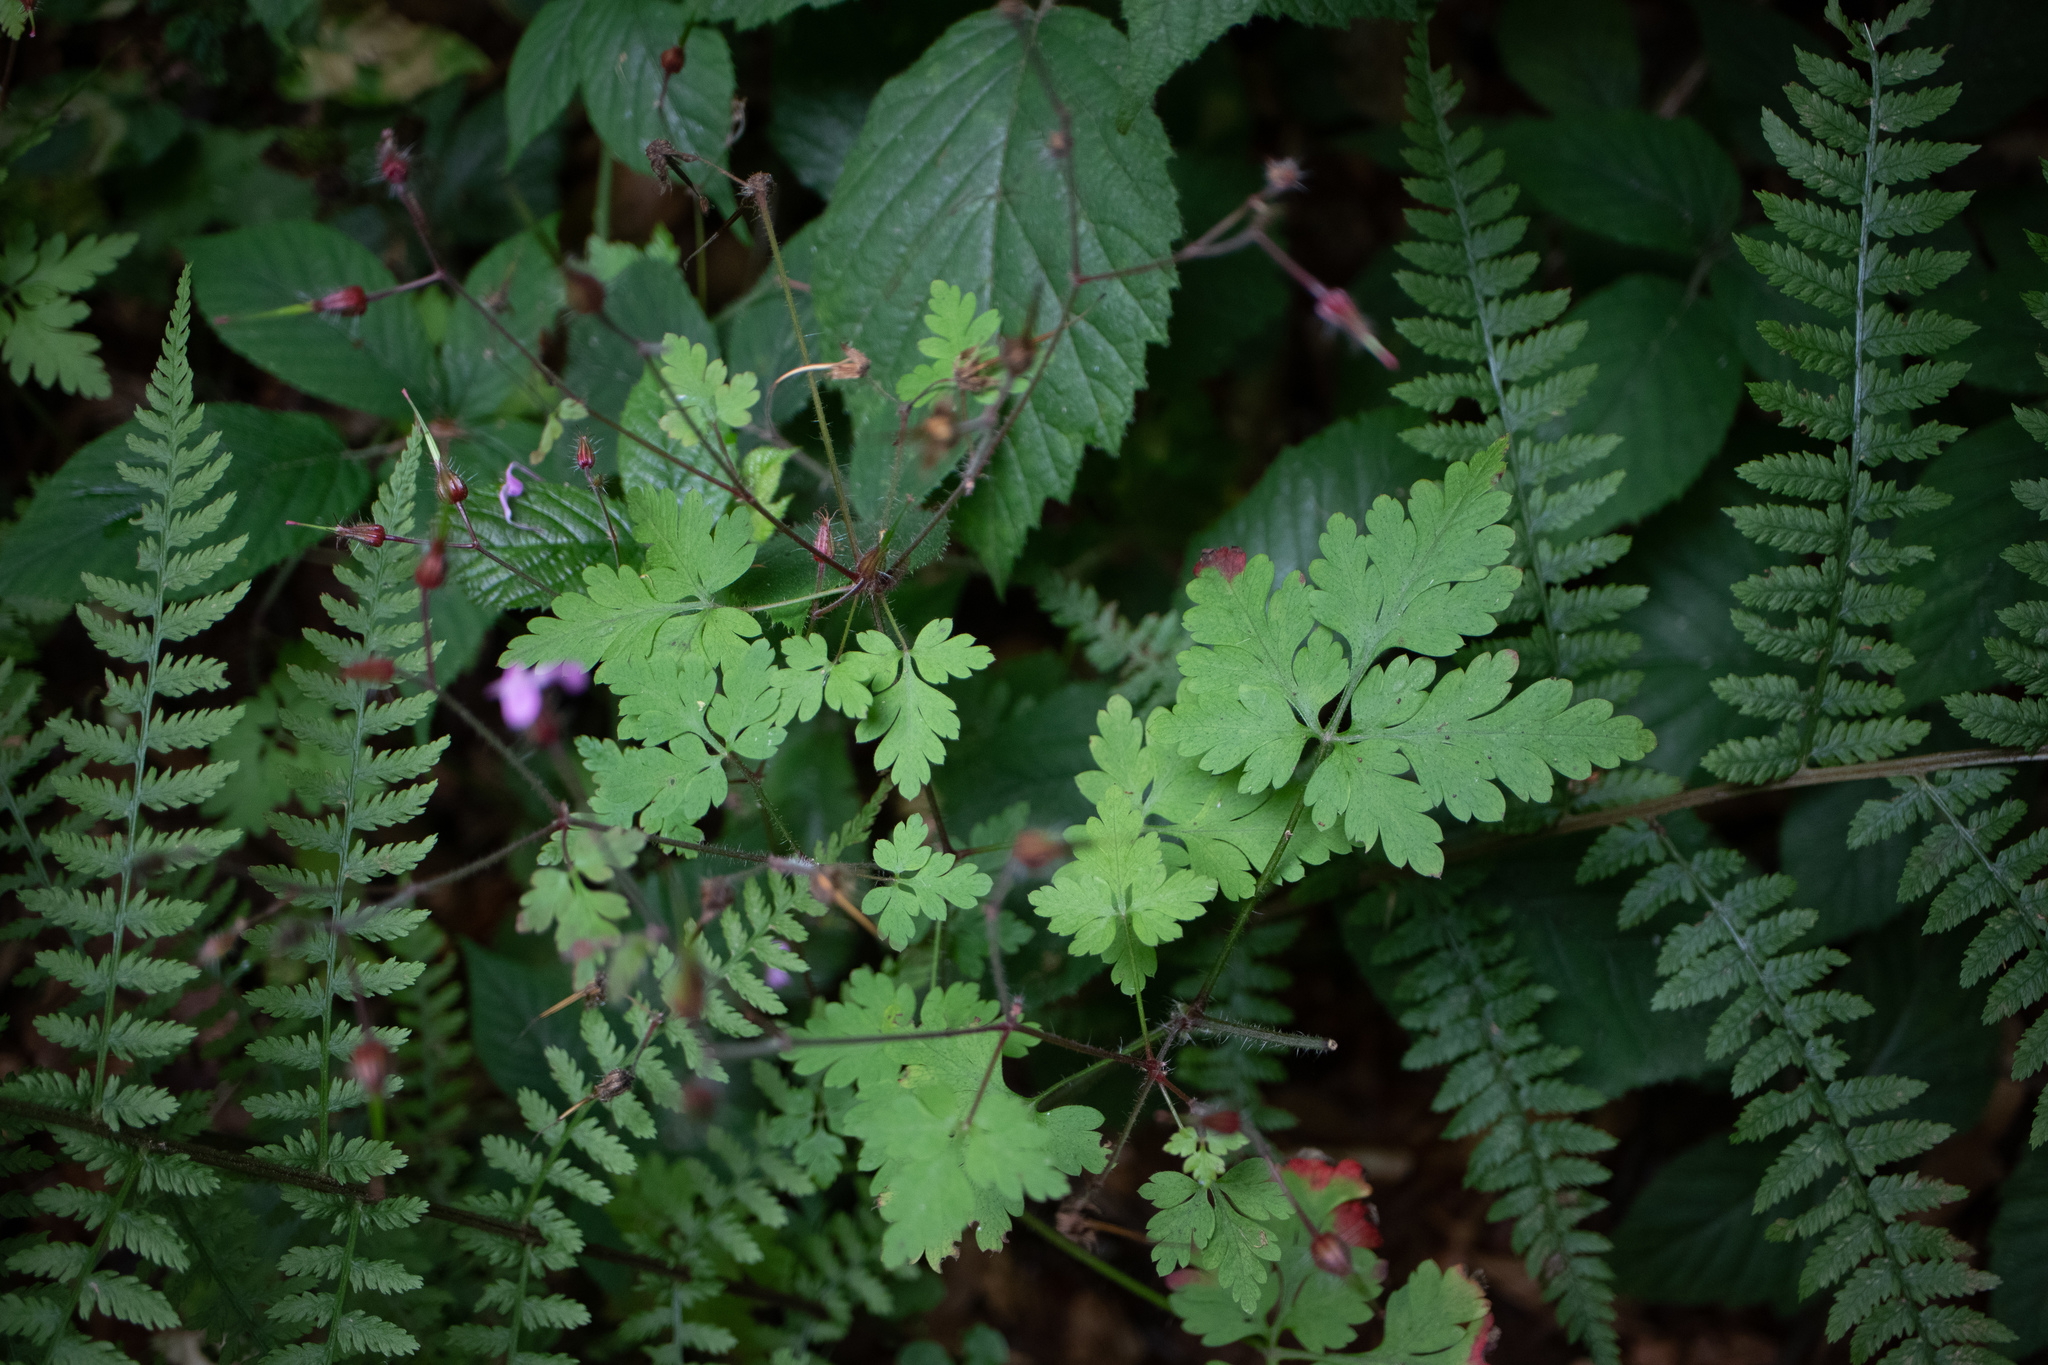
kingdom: Plantae
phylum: Tracheophyta
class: Magnoliopsida
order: Geraniales
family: Geraniaceae
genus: Geranium
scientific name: Geranium robertianum
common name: Herb-robert
